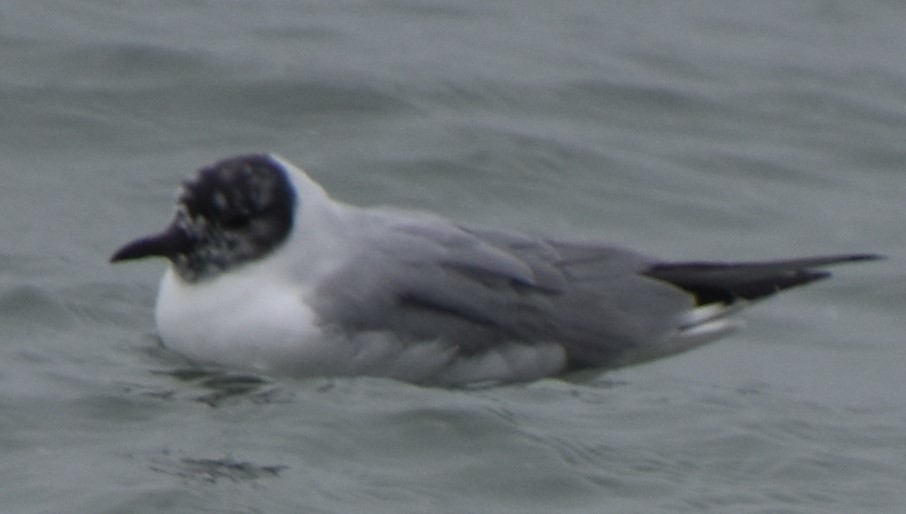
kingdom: Animalia
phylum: Chordata
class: Aves
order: Charadriiformes
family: Laridae
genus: Chroicocephalus
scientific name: Chroicocephalus philadelphia
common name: Bonaparte's gull
